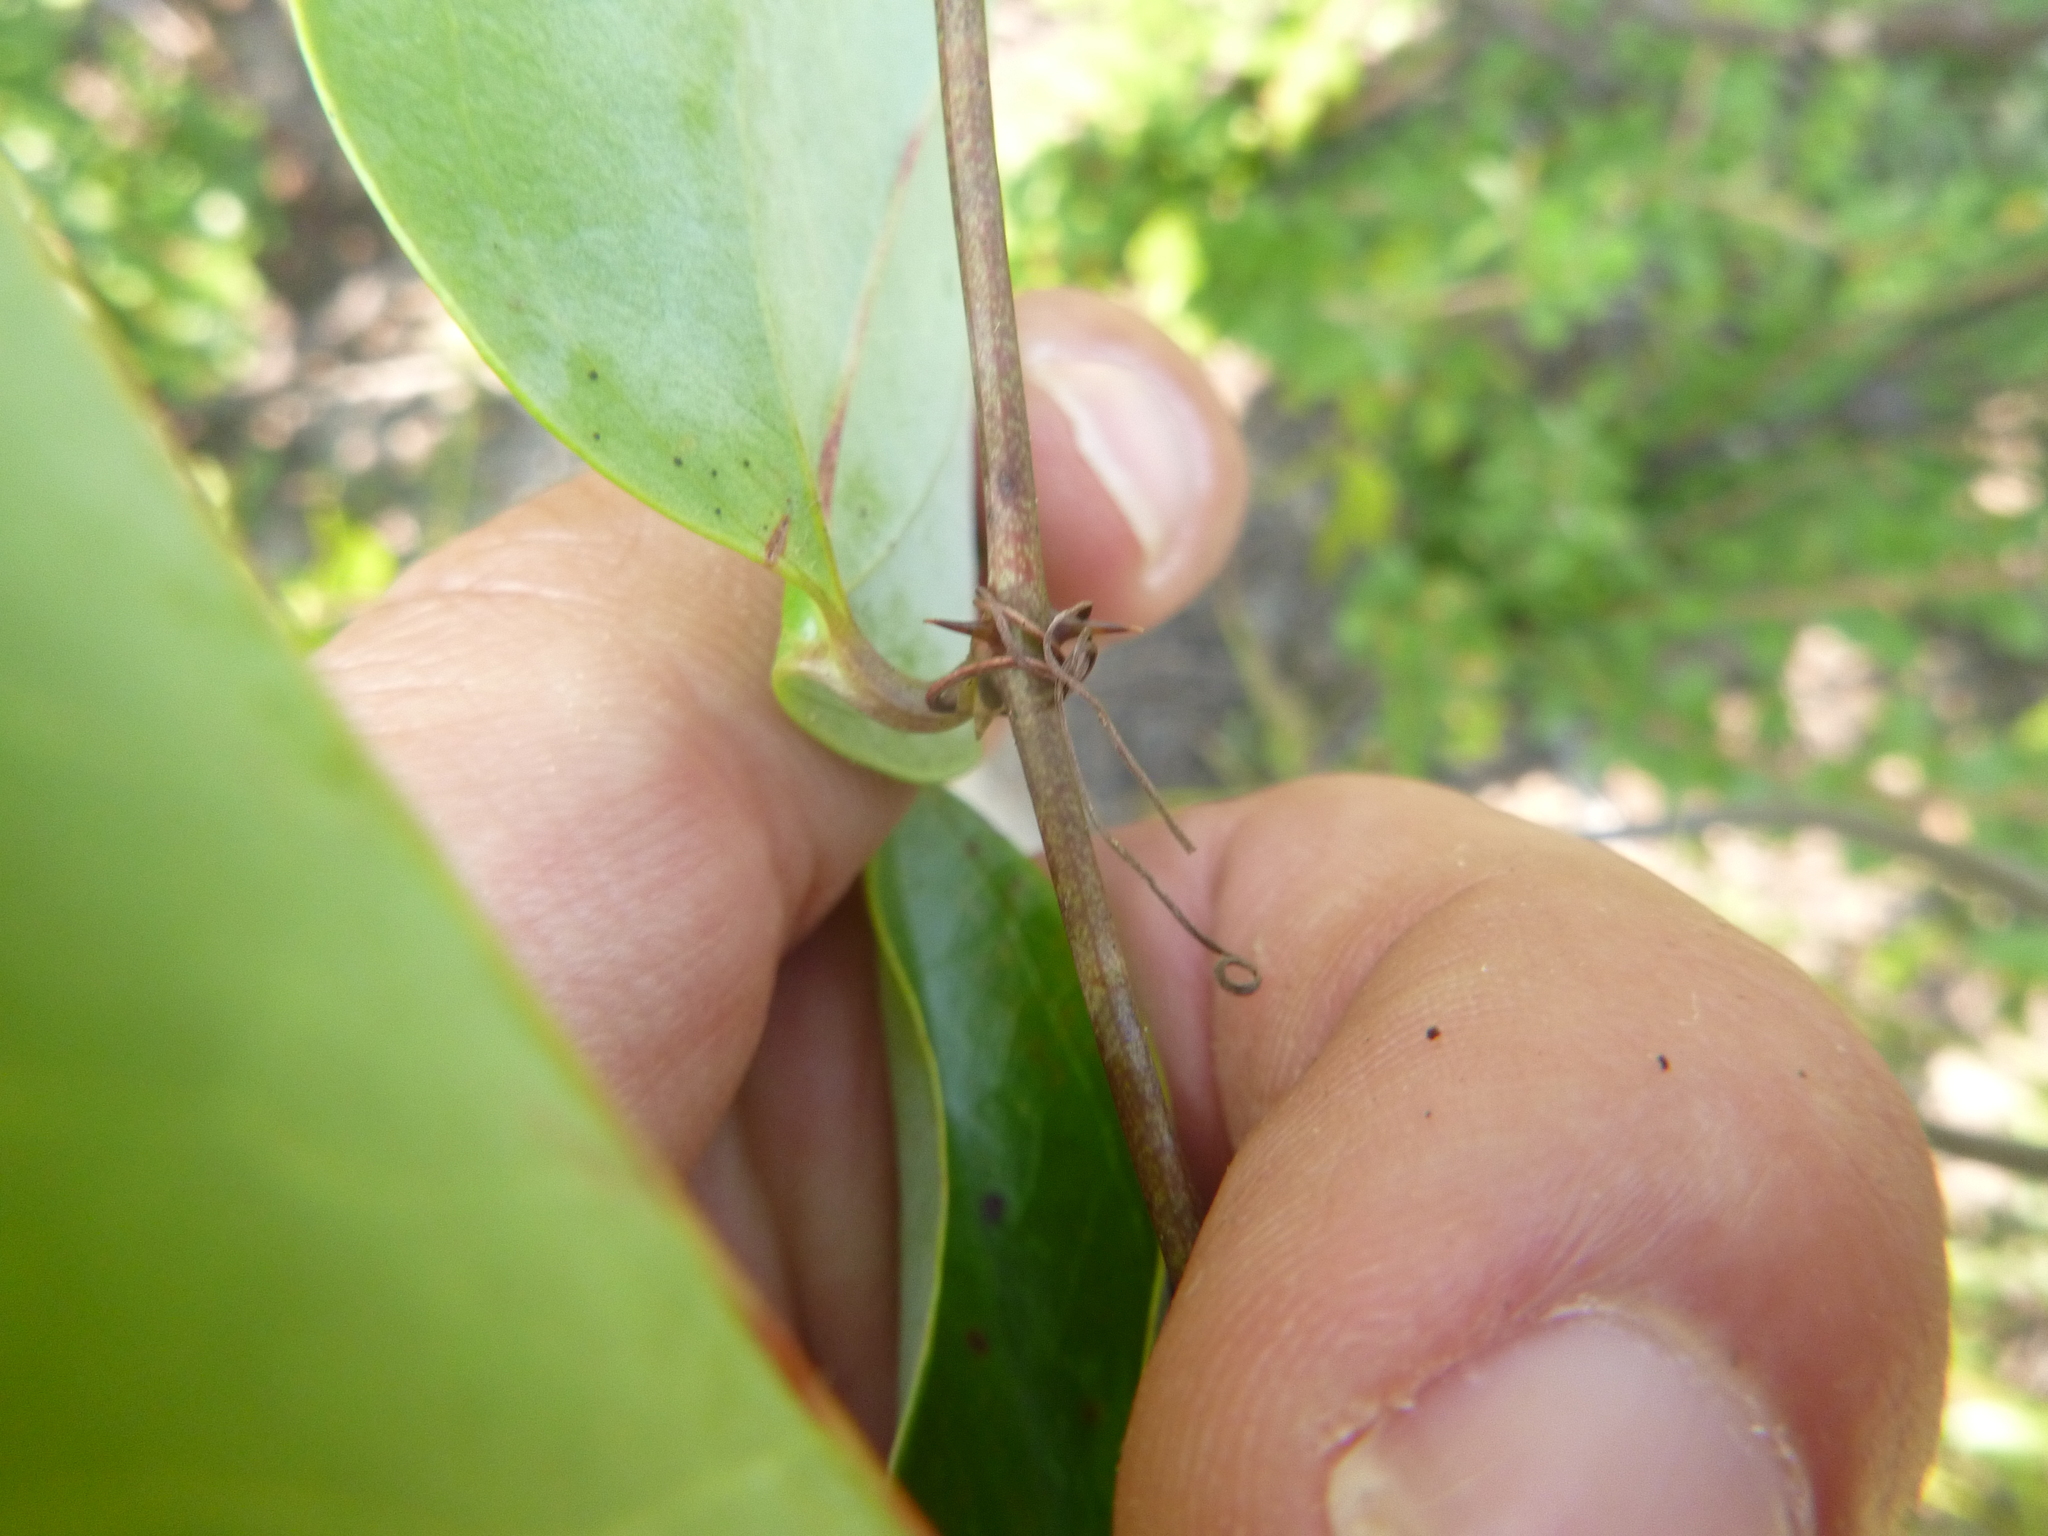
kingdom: Plantae
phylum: Tracheophyta
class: Liliopsida
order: Liliales
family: Smilacaceae
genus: Smilax
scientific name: Smilax glauca
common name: Cat greenbrier
